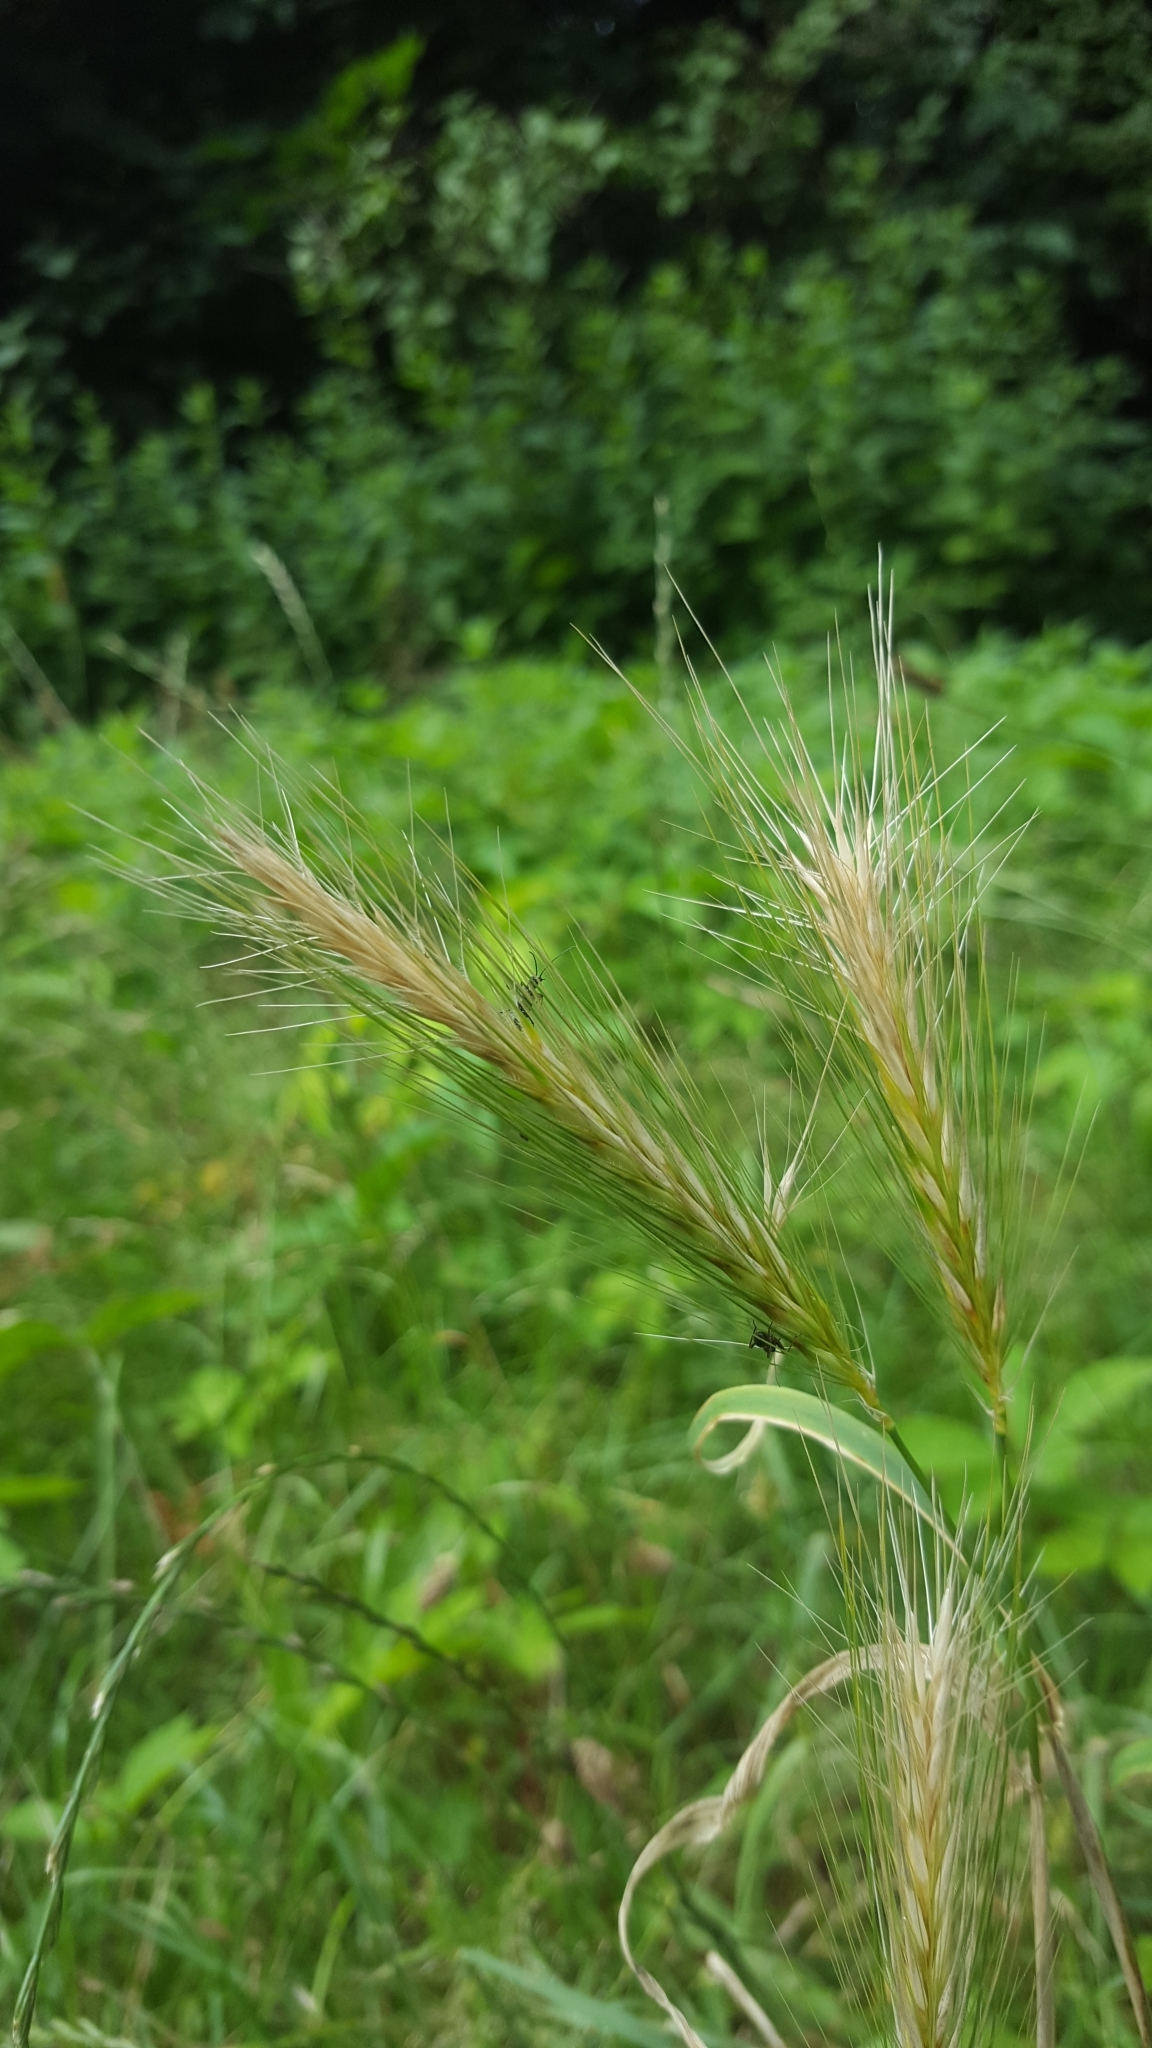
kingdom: Plantae
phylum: Tracheophyta
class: Liliopsida
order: Poales
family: Poaceae
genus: Hordeum
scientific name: Hordeum murinum
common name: Wall barley
